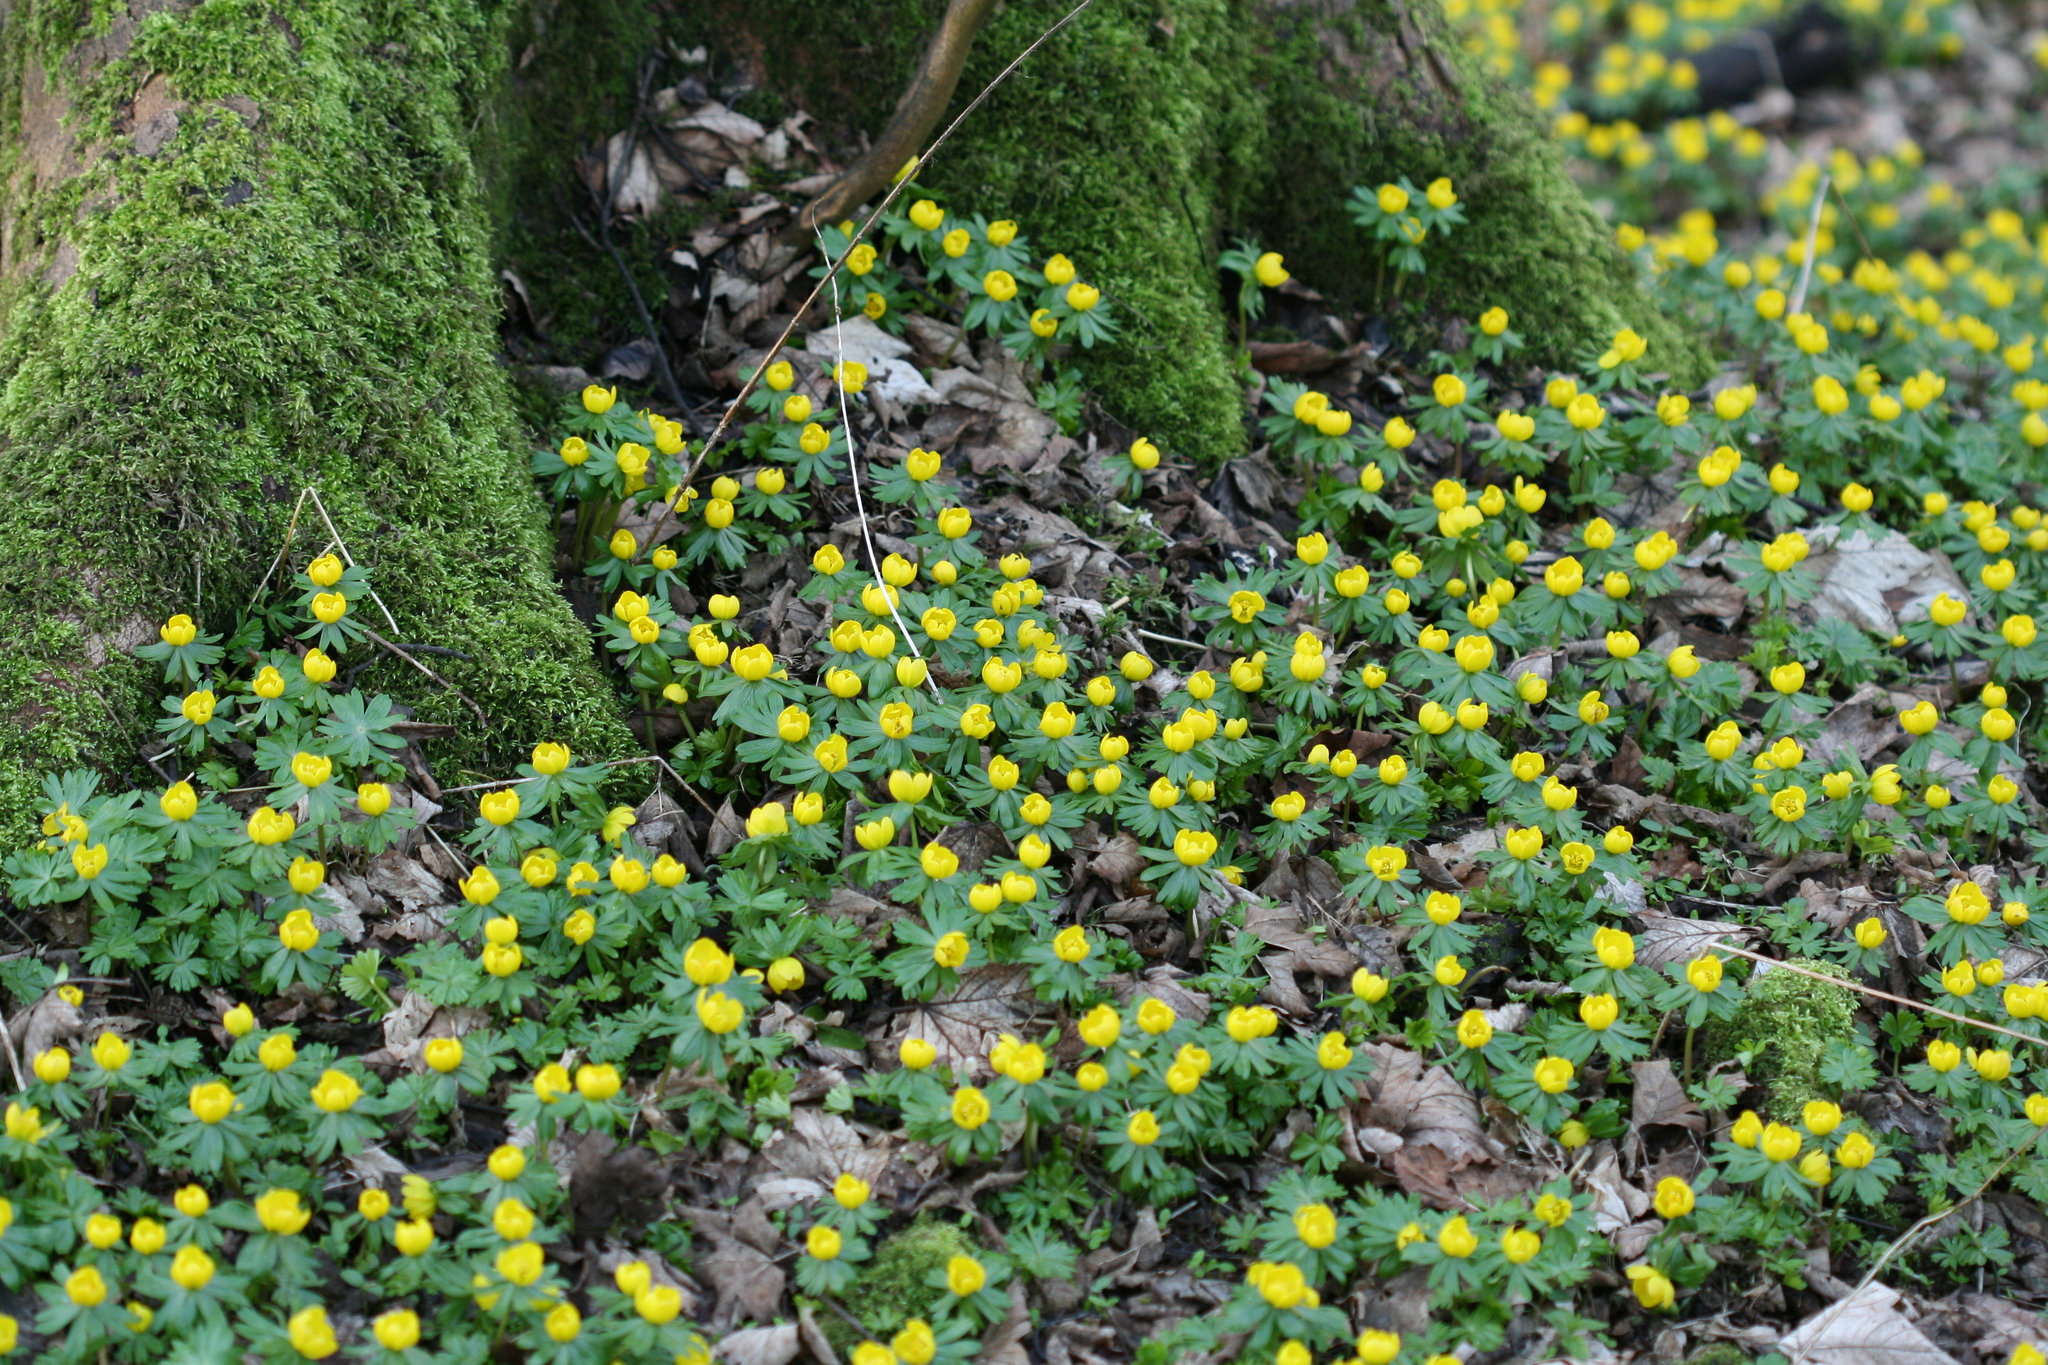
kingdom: Plantae
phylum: Tracheophyta
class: Magnoliopsida
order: Ranunculales
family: Ranunculaceae
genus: Eranthis
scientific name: Eranthis hyemalis
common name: Winter aconite
